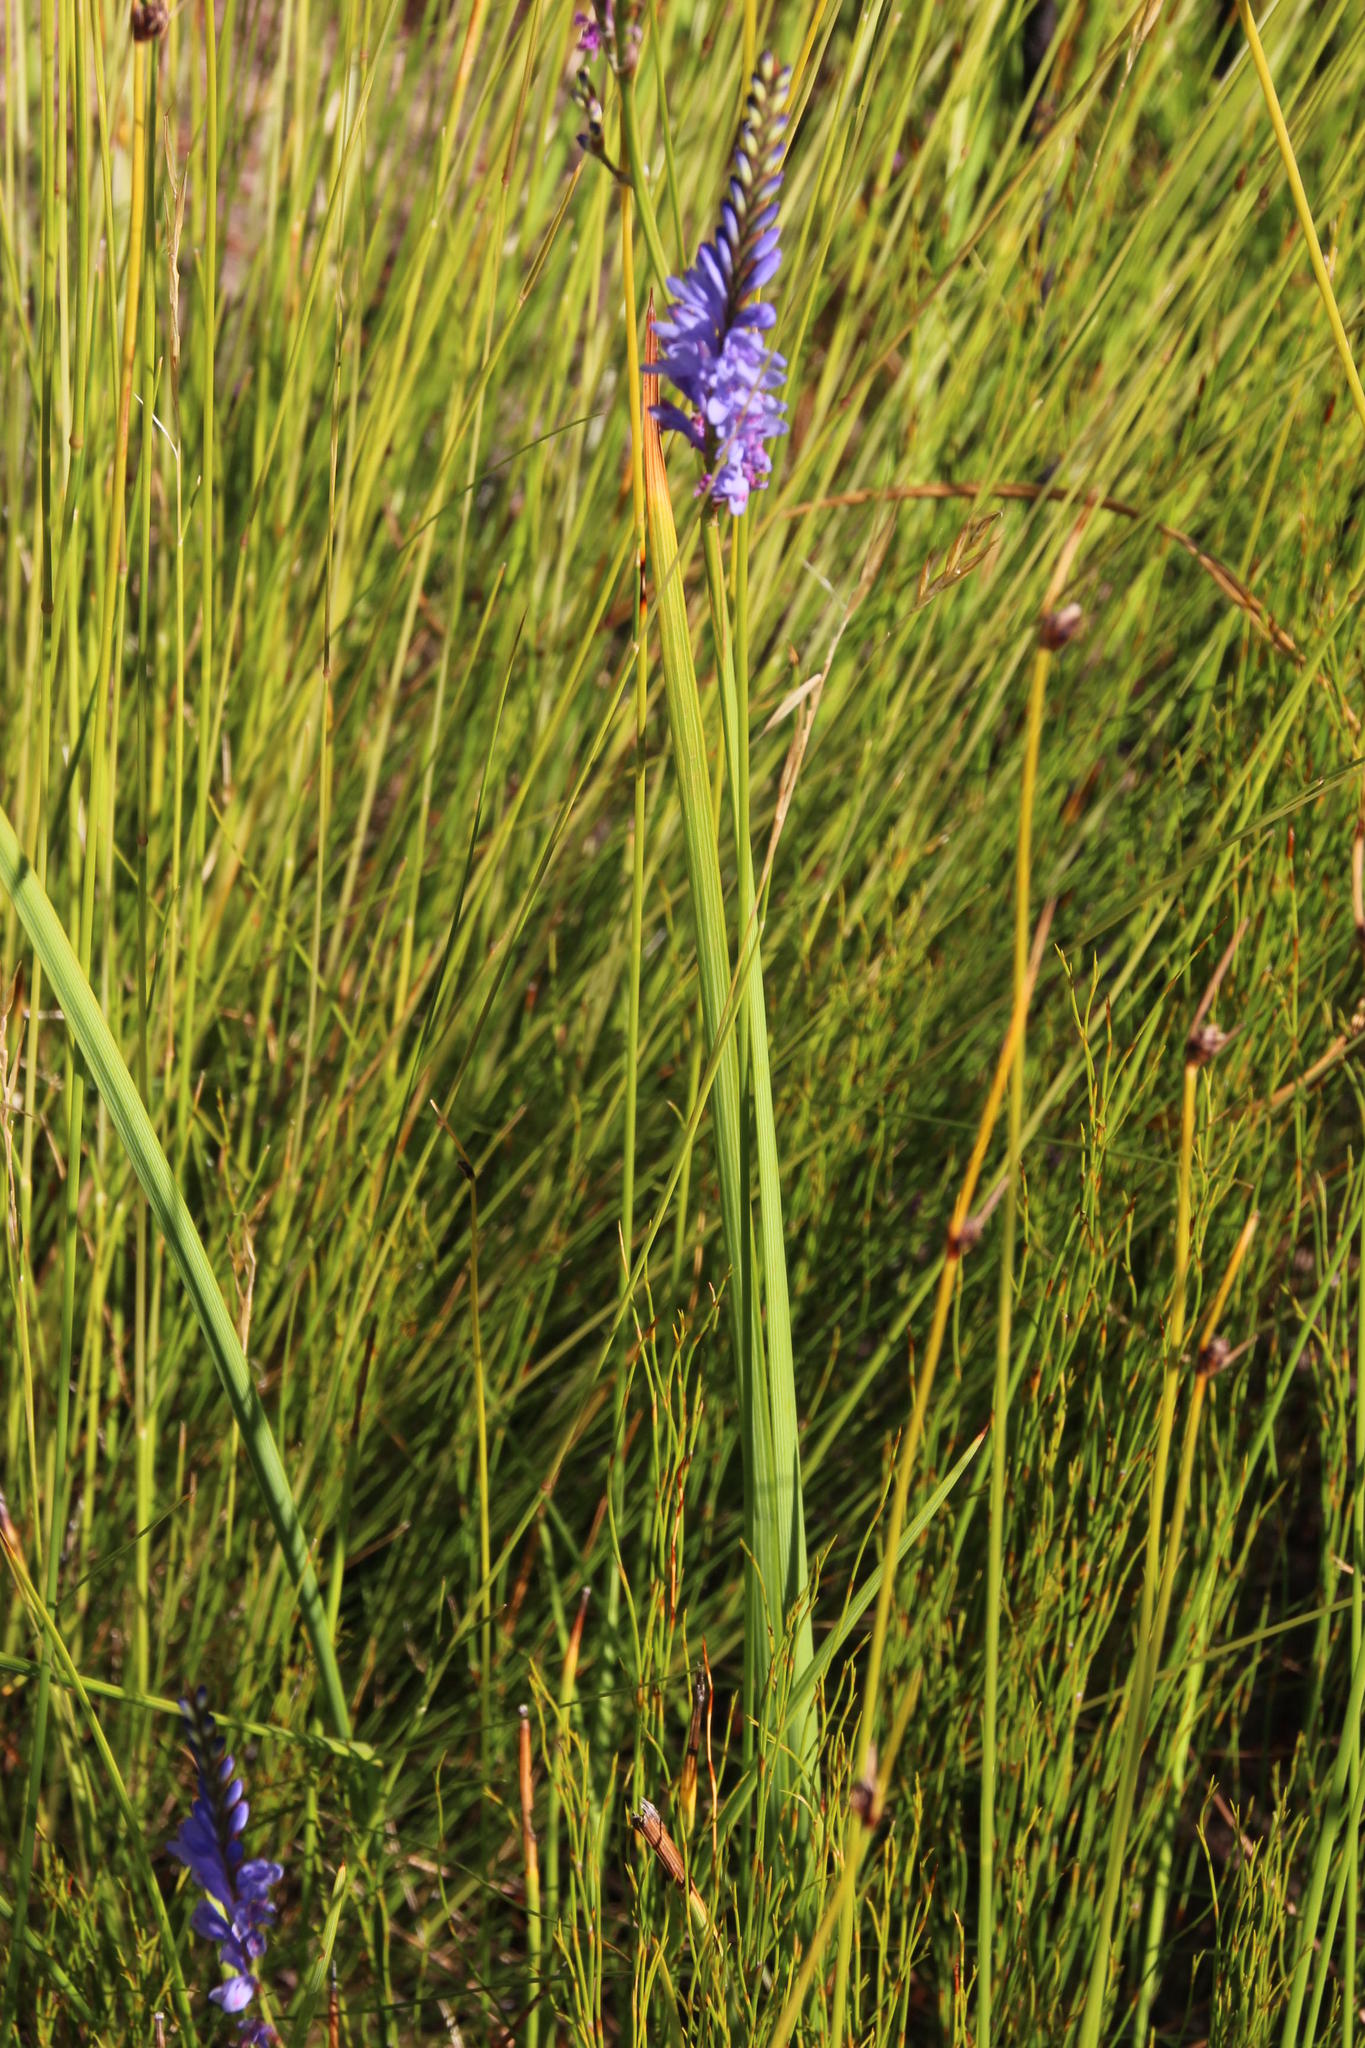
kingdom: Plantae
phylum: Tracheophyta
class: Liliopsida
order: Asparagales
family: Iridaceae
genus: Micranthus
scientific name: Micranthus alopecuroides
